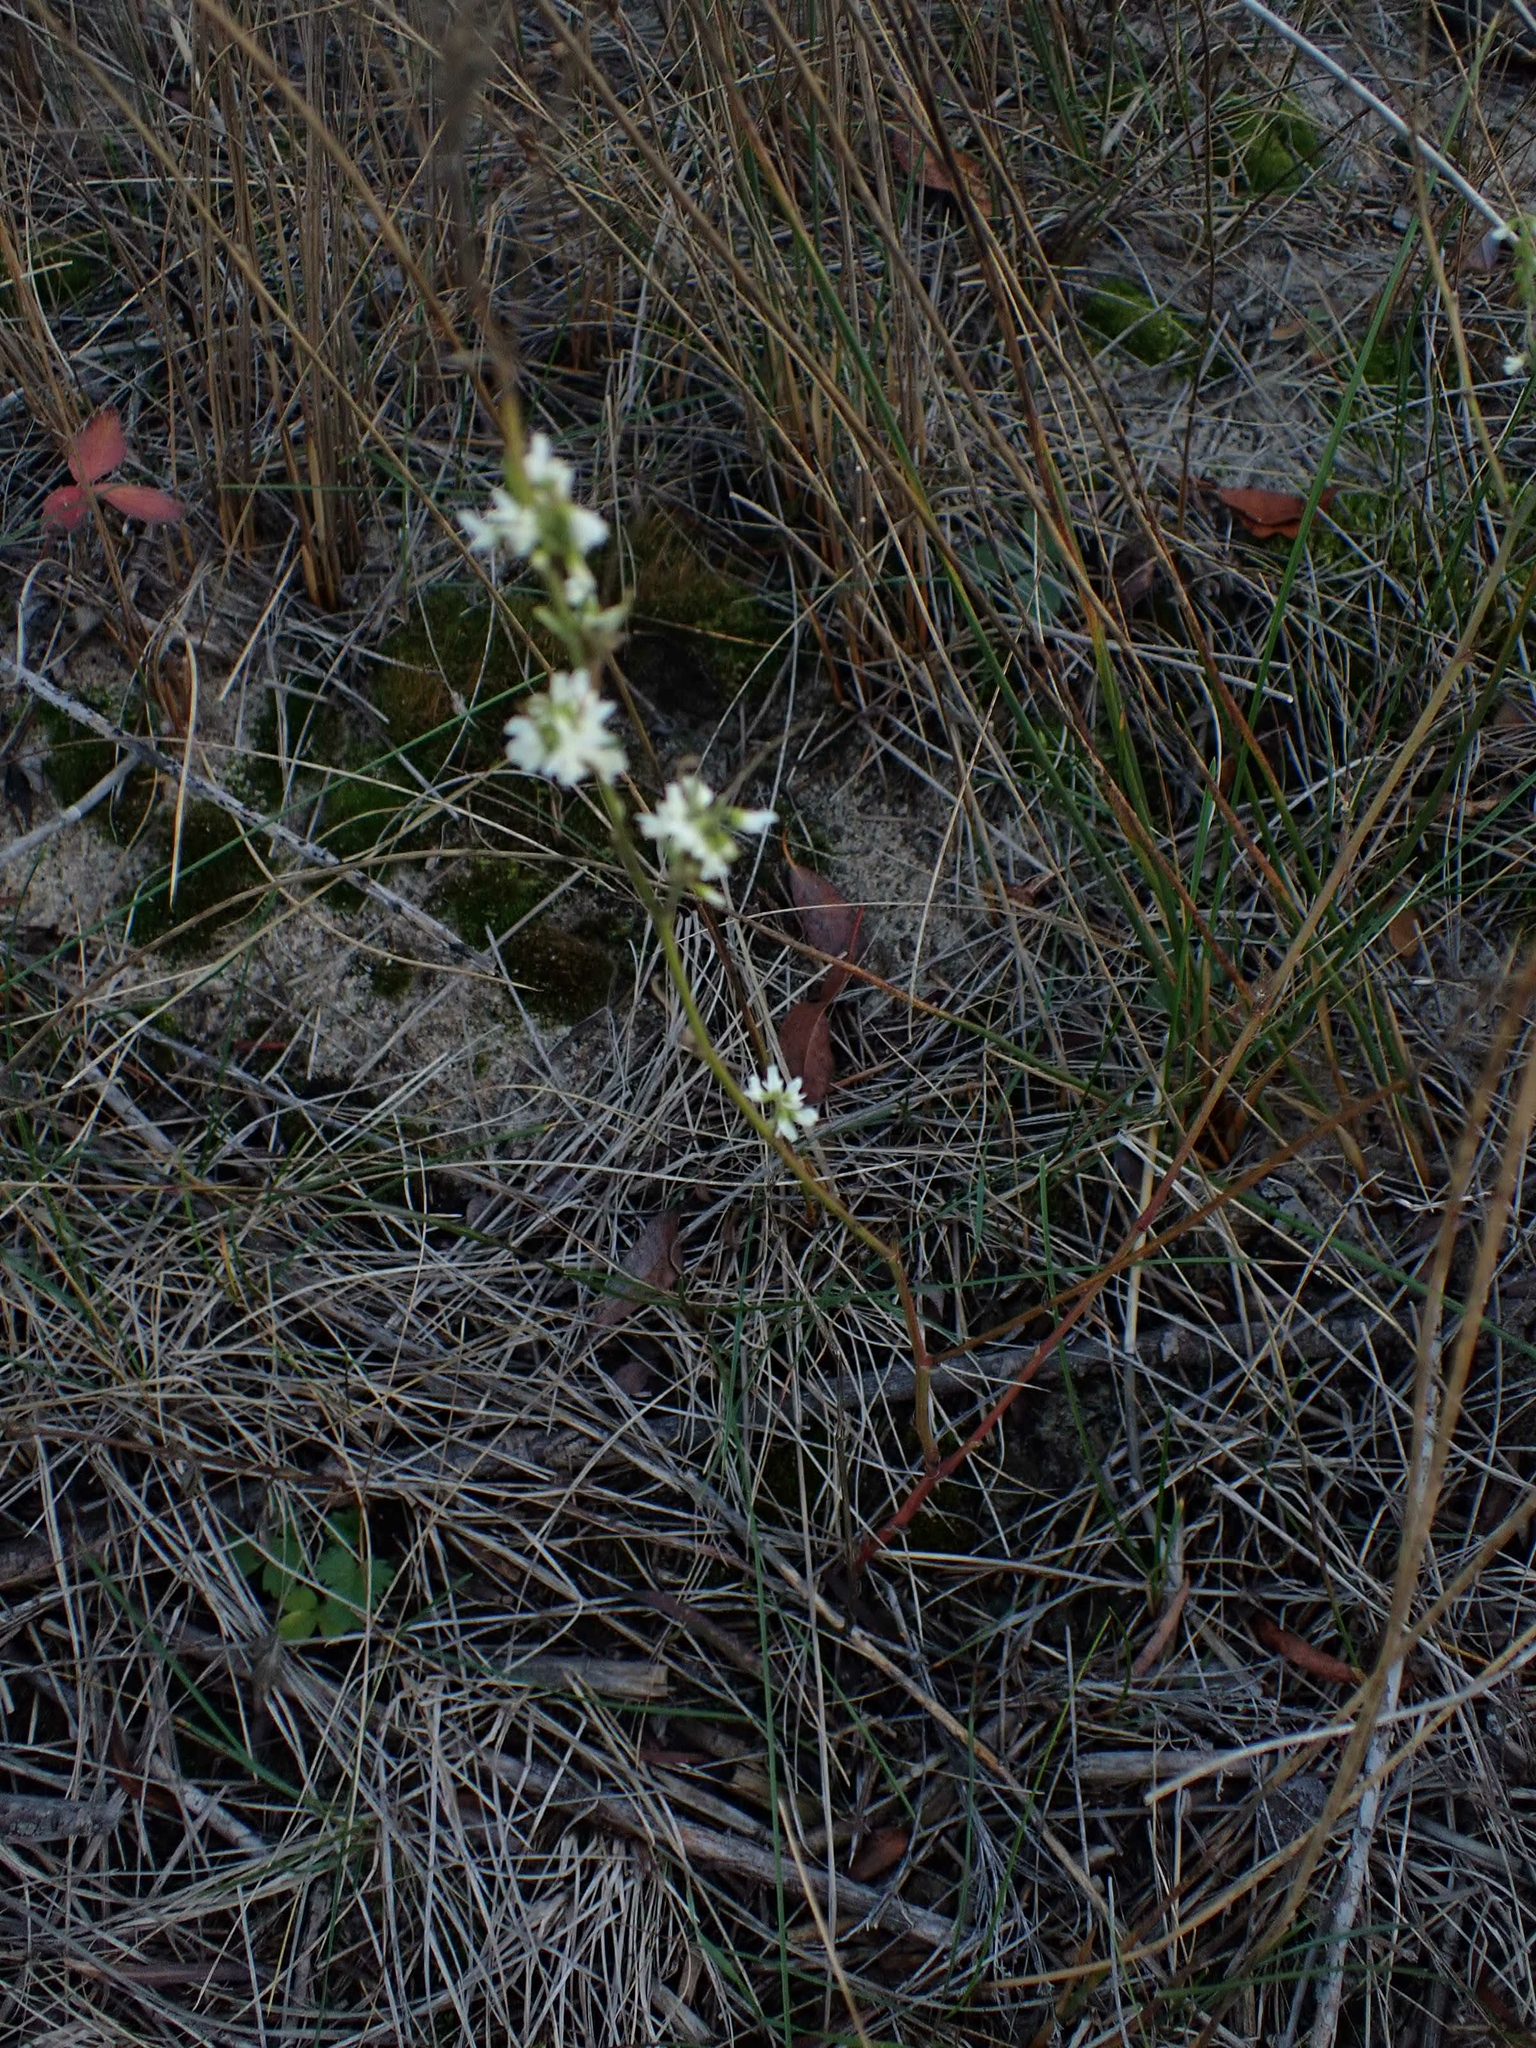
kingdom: Plantae
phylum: Tracheophyta
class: Magnoliopsida
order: Fabales
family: Fabaceae
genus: Melilotus
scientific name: Melilotus albus
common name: White melilot
